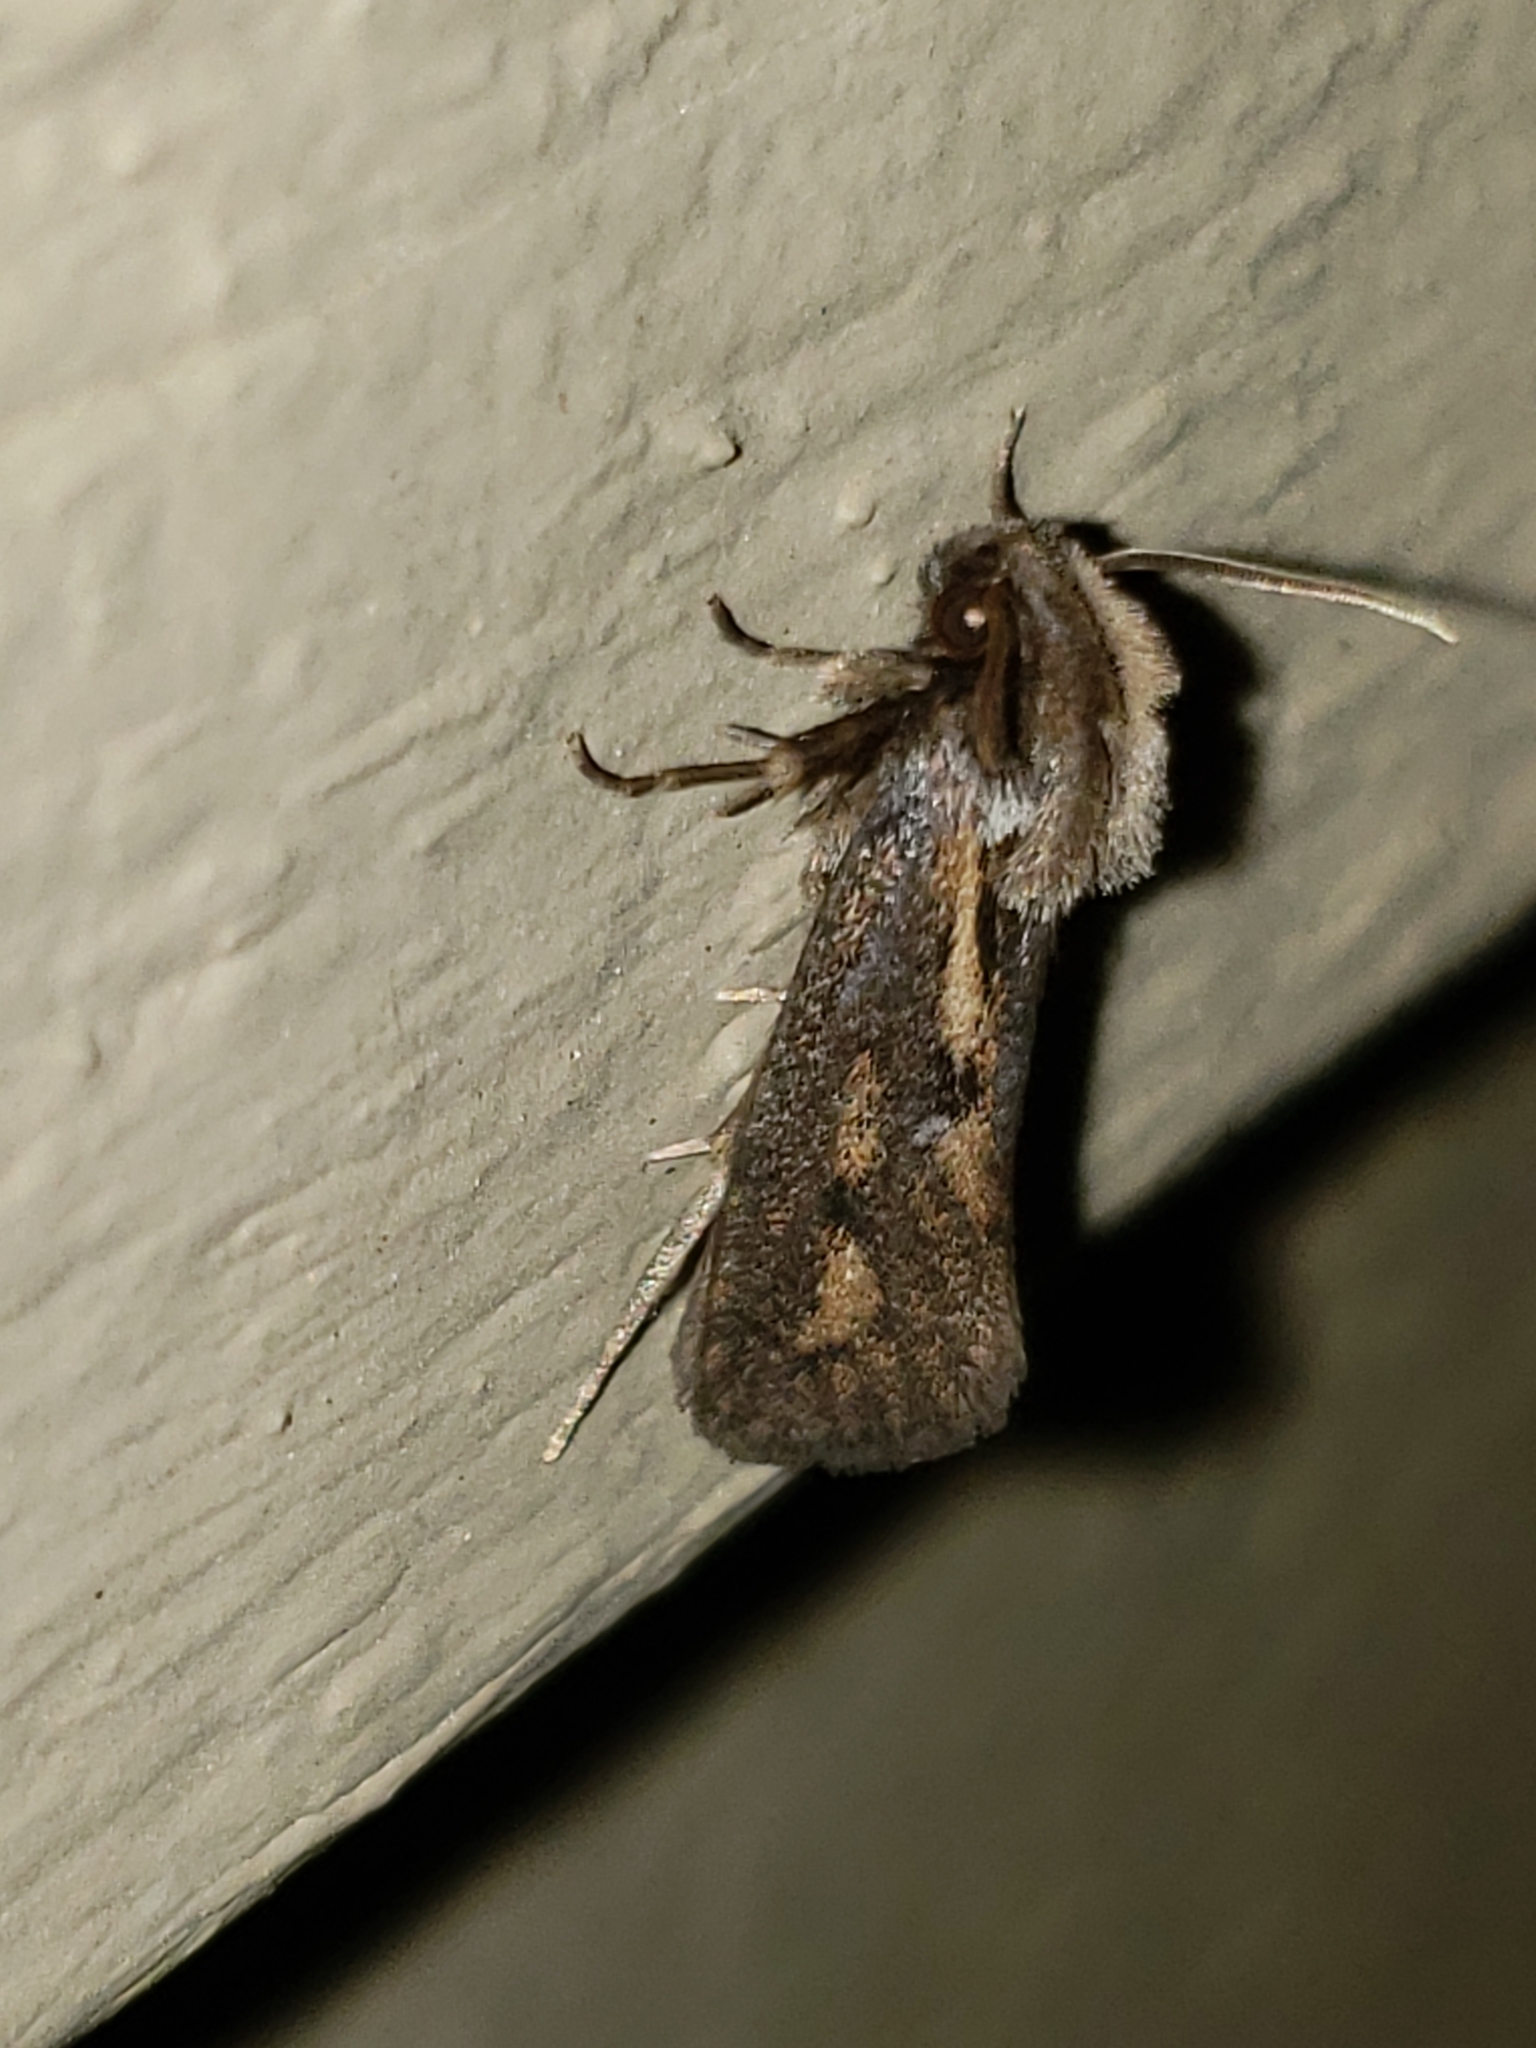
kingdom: Animalia
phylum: Arthropoda
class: Insecta
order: Lepidoptera
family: Tineidae
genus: Acrolophus
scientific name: Acrolophus popeanella
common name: Clemens' grass tubeworm moth
